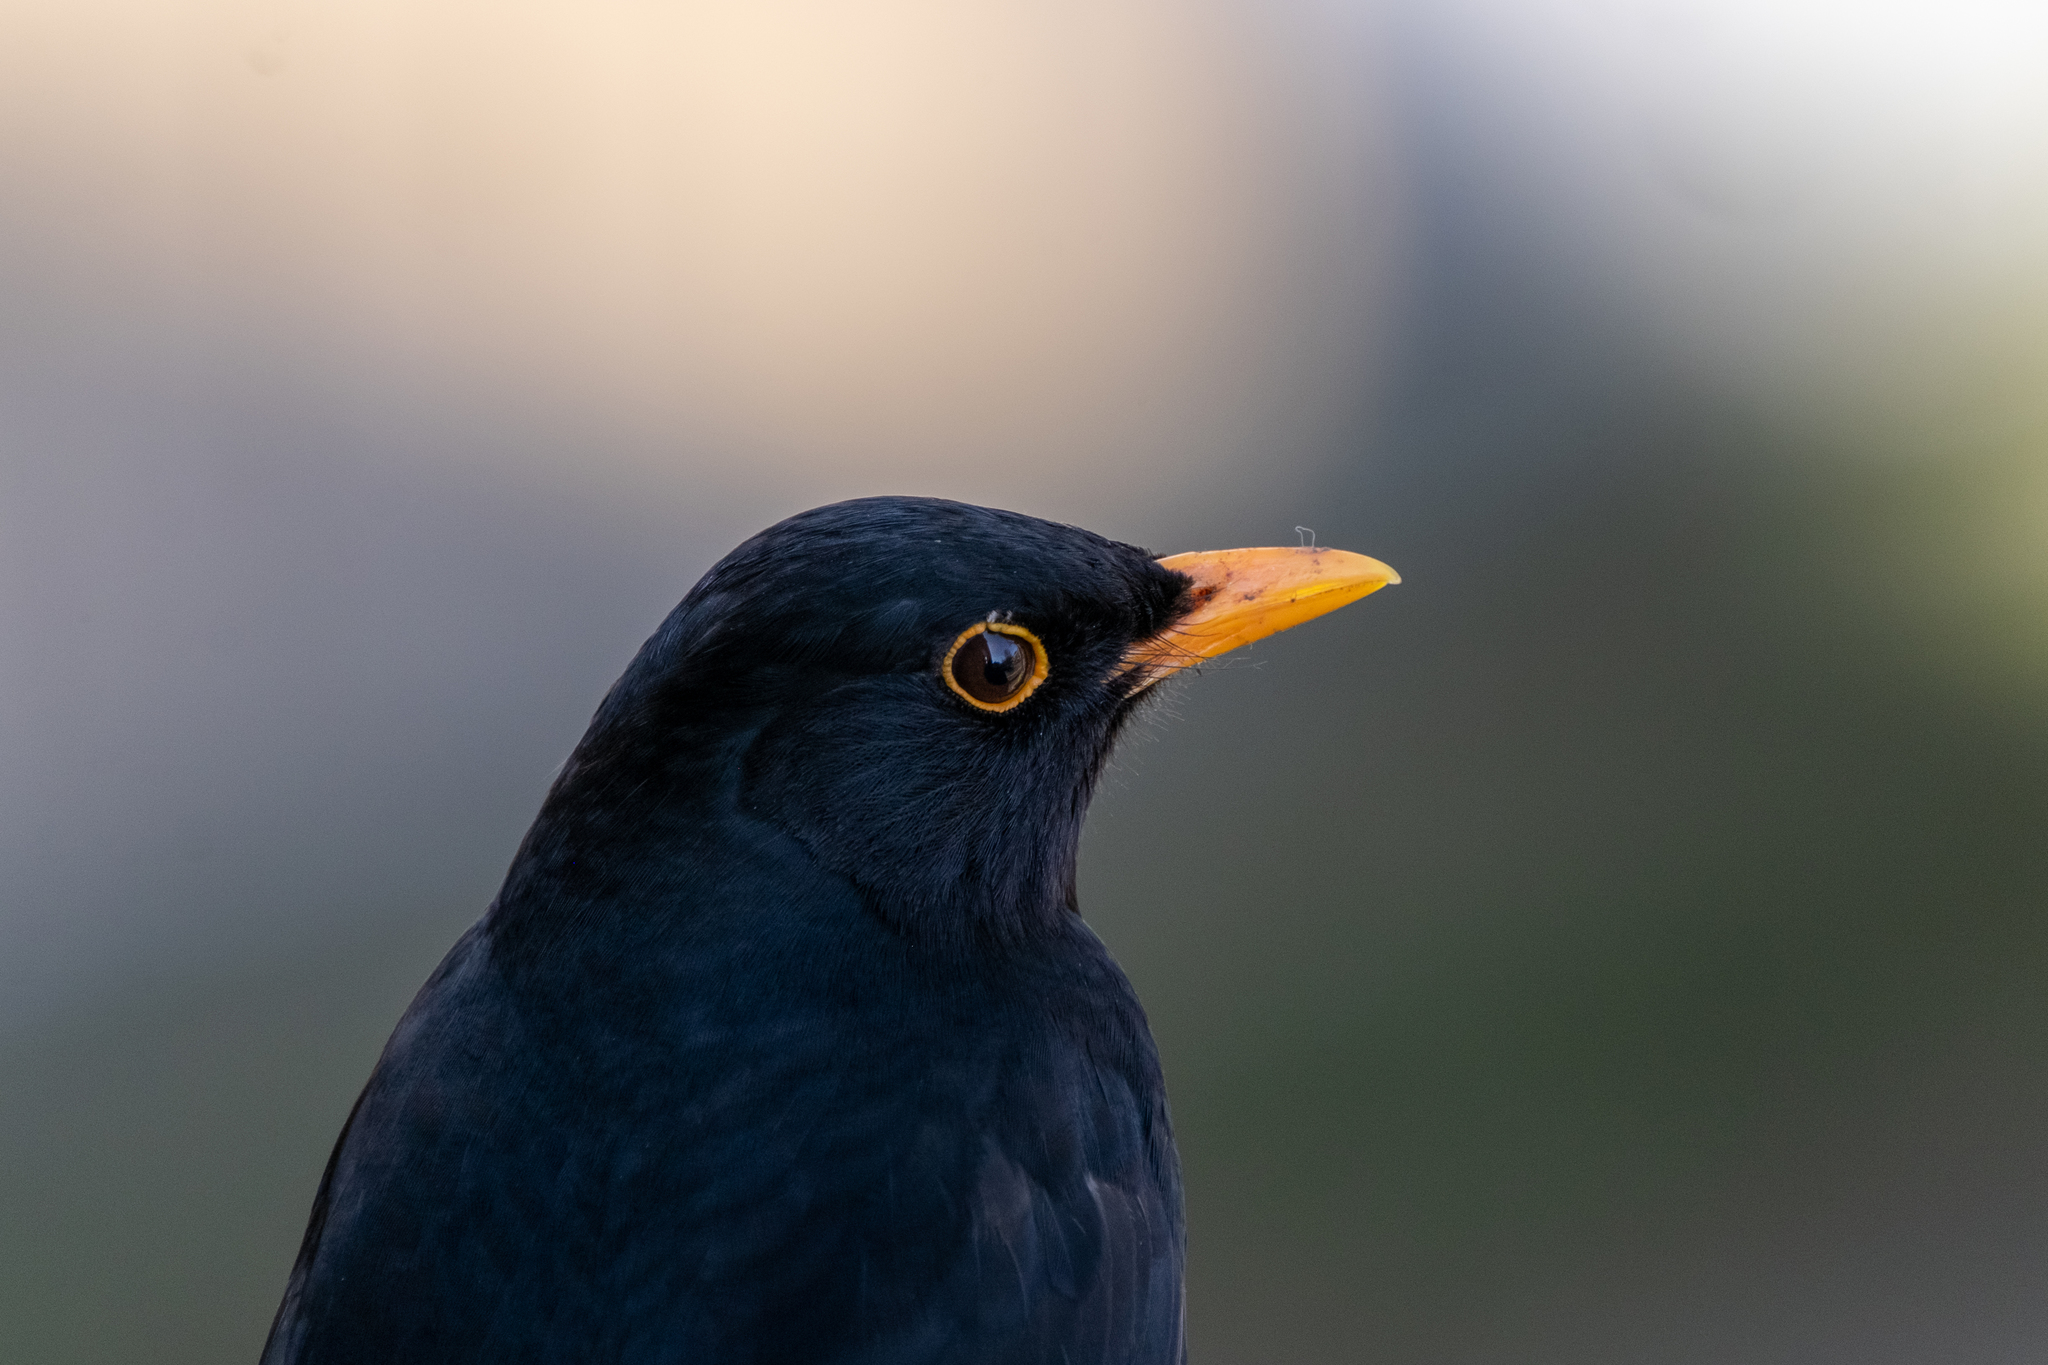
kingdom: Animalia
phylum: Chordata
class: Aves
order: Passeriformes
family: Turdidae
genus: Turdus
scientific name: Turdus merula
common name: Common blackbird
